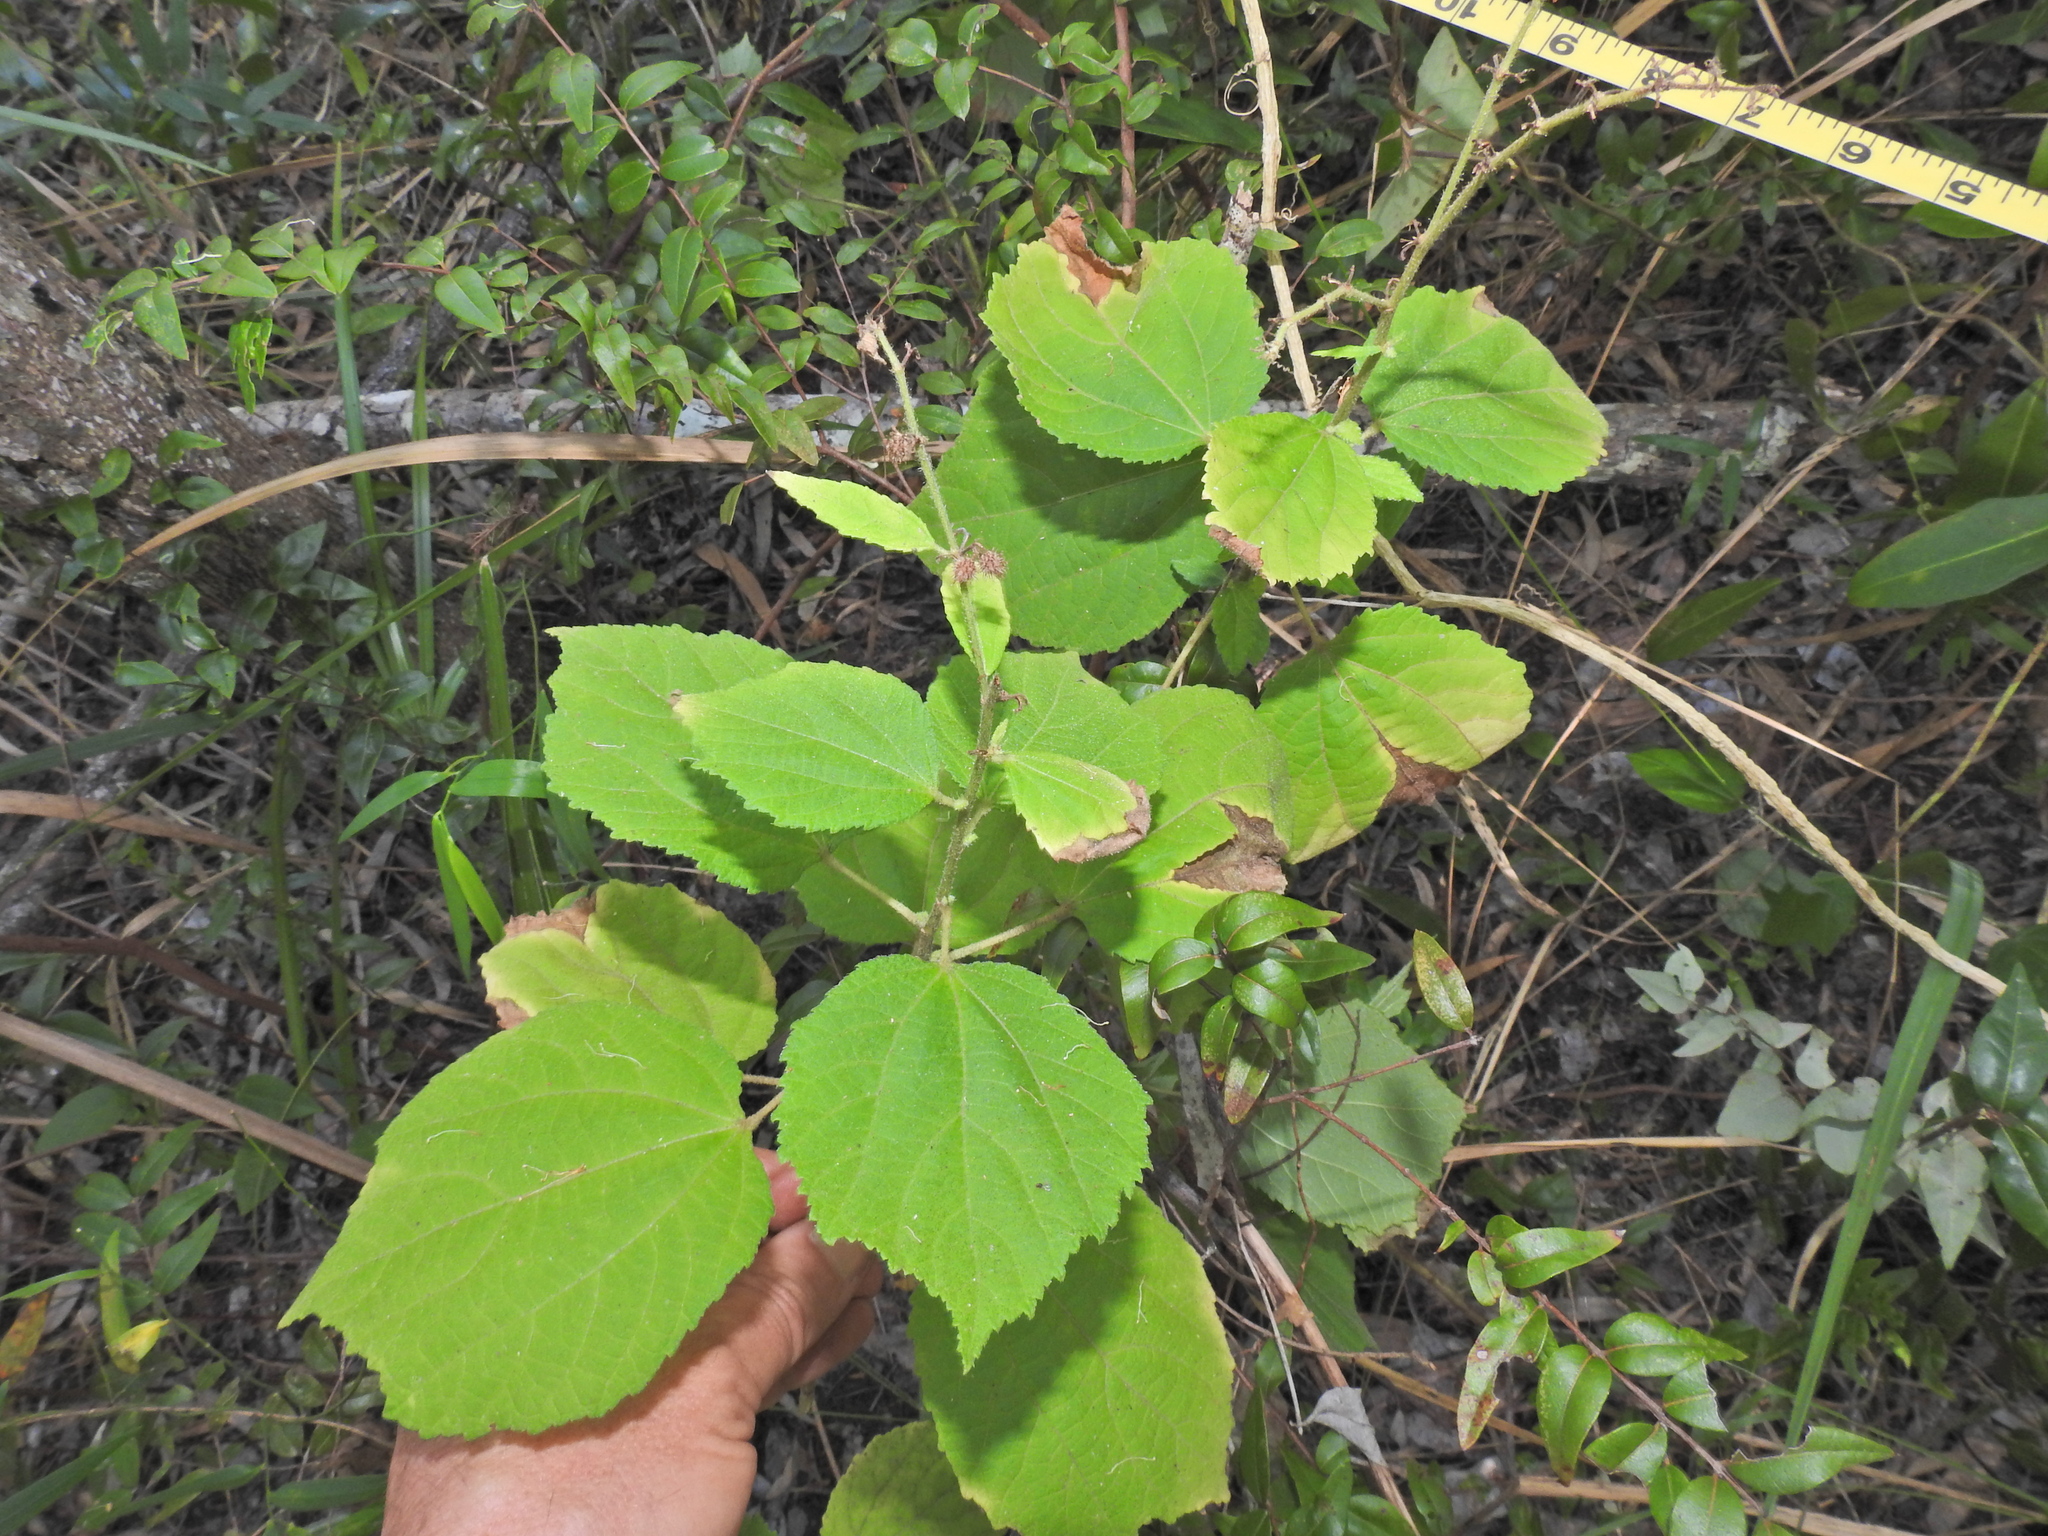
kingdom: Plantae
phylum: Tracheophyta
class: Magnoliopsida
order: Malvales
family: Malvaceae
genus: Triumfetta
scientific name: Triumfetta rhomboidea
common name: Diamond burbark
